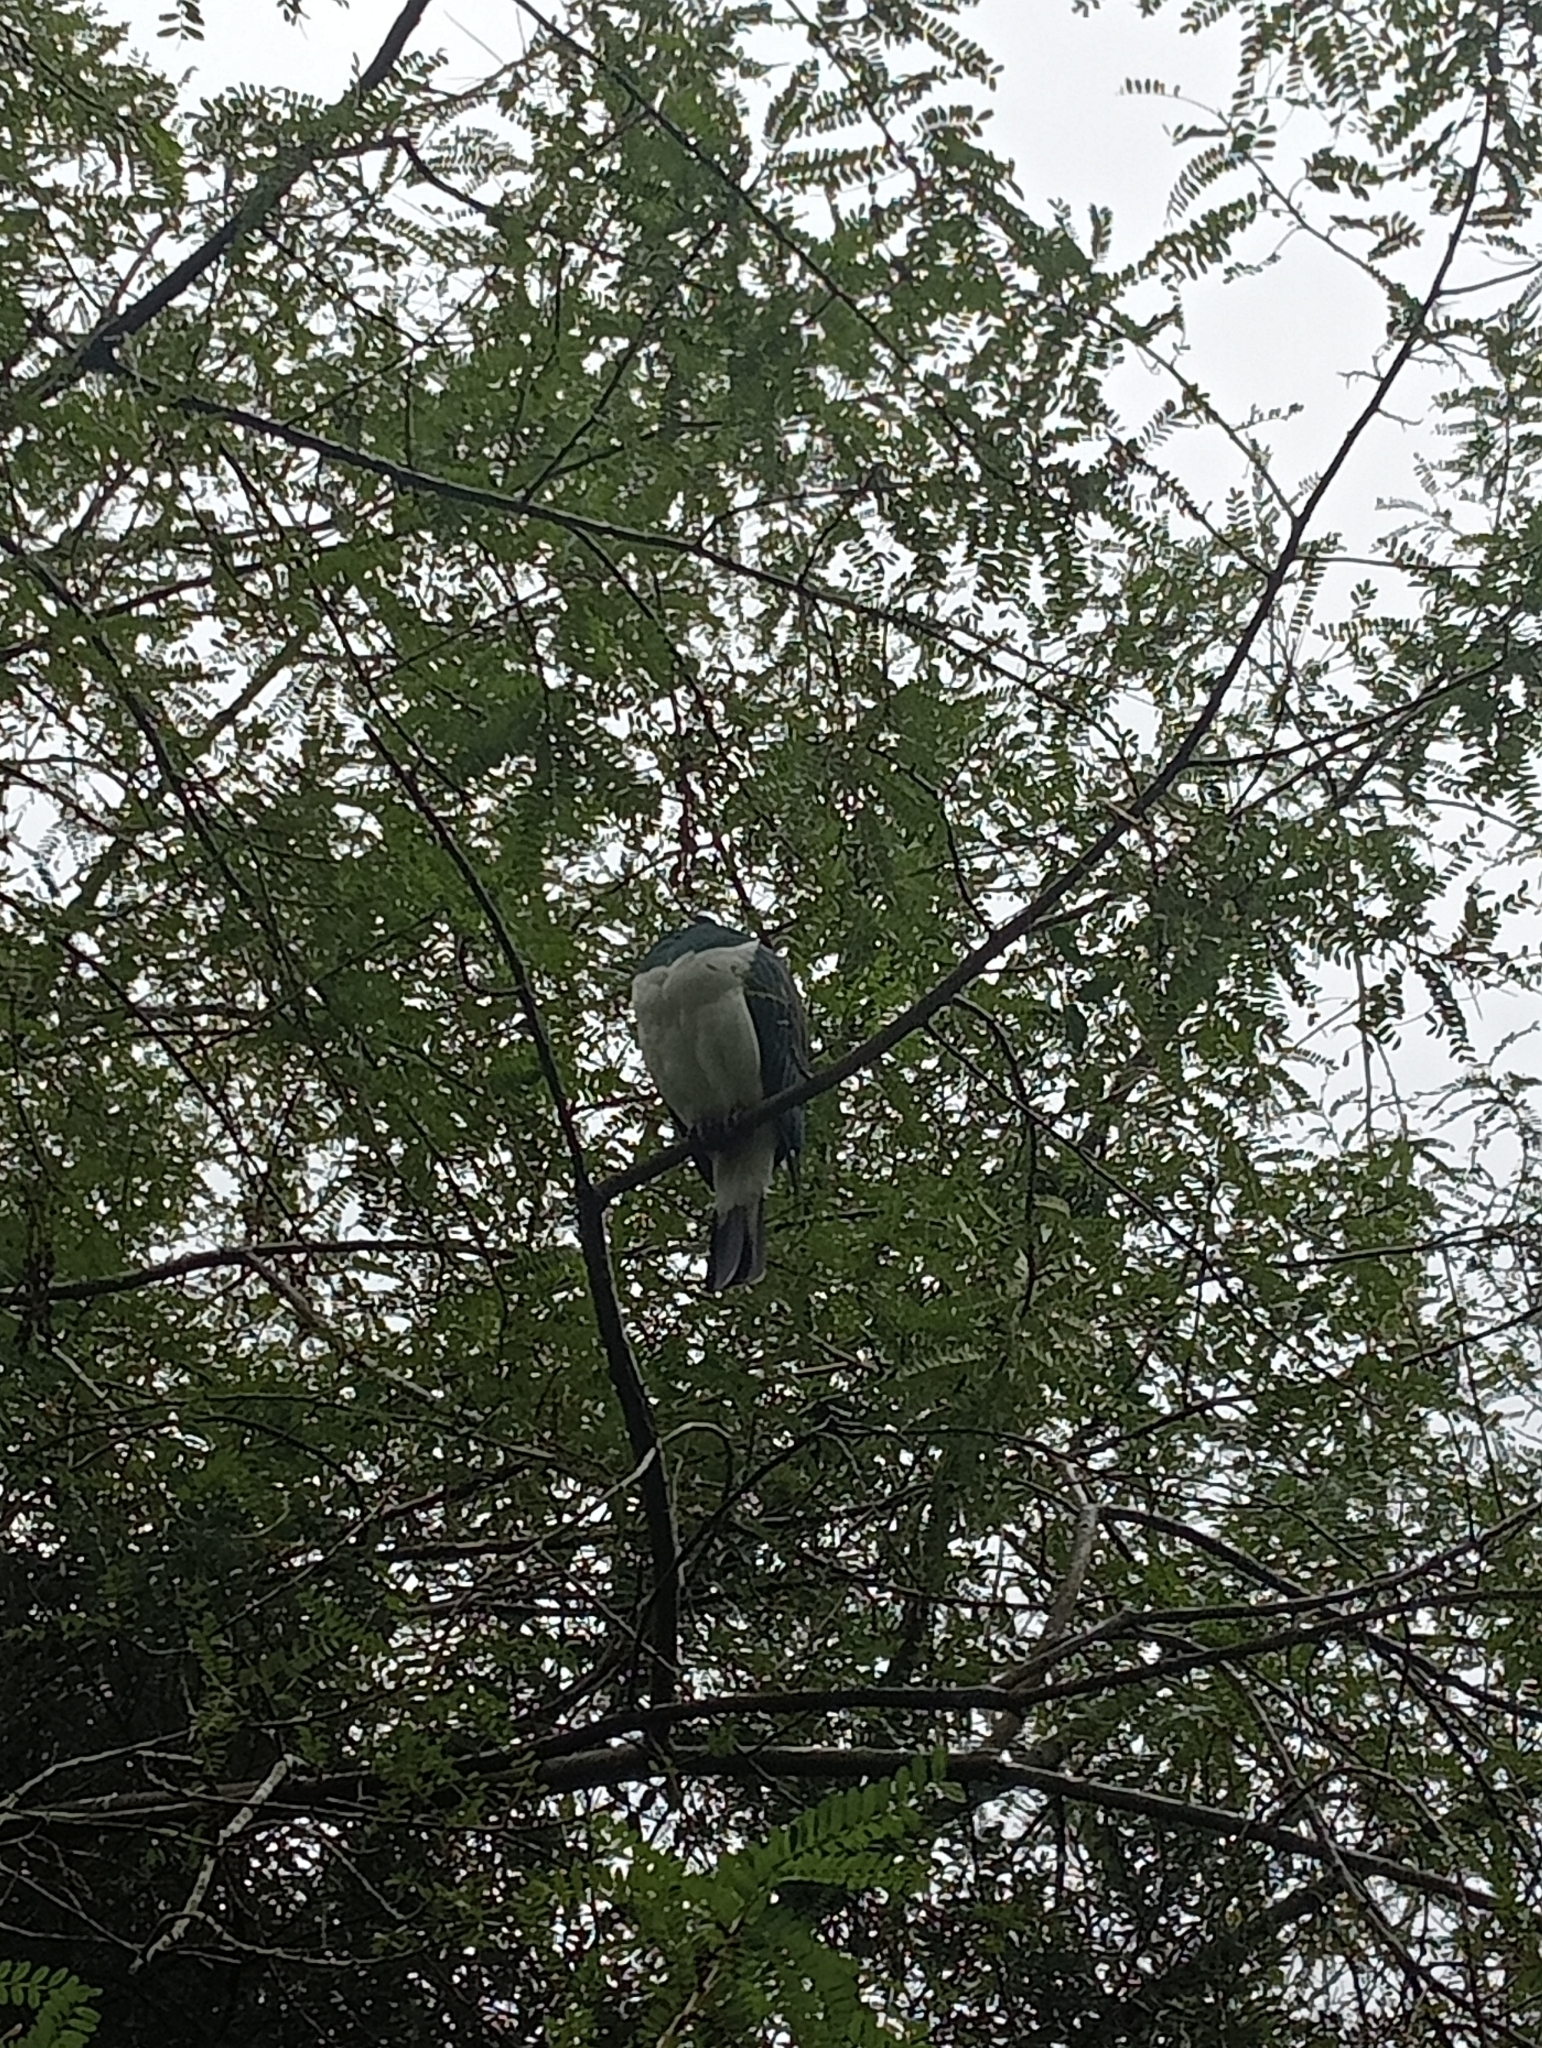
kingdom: Animalia
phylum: Chordata
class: Aves
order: Columbiformes
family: Columbidae
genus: Hemiphaga
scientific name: Hemiphaga novaeseelandiae
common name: New zealand pigeon
